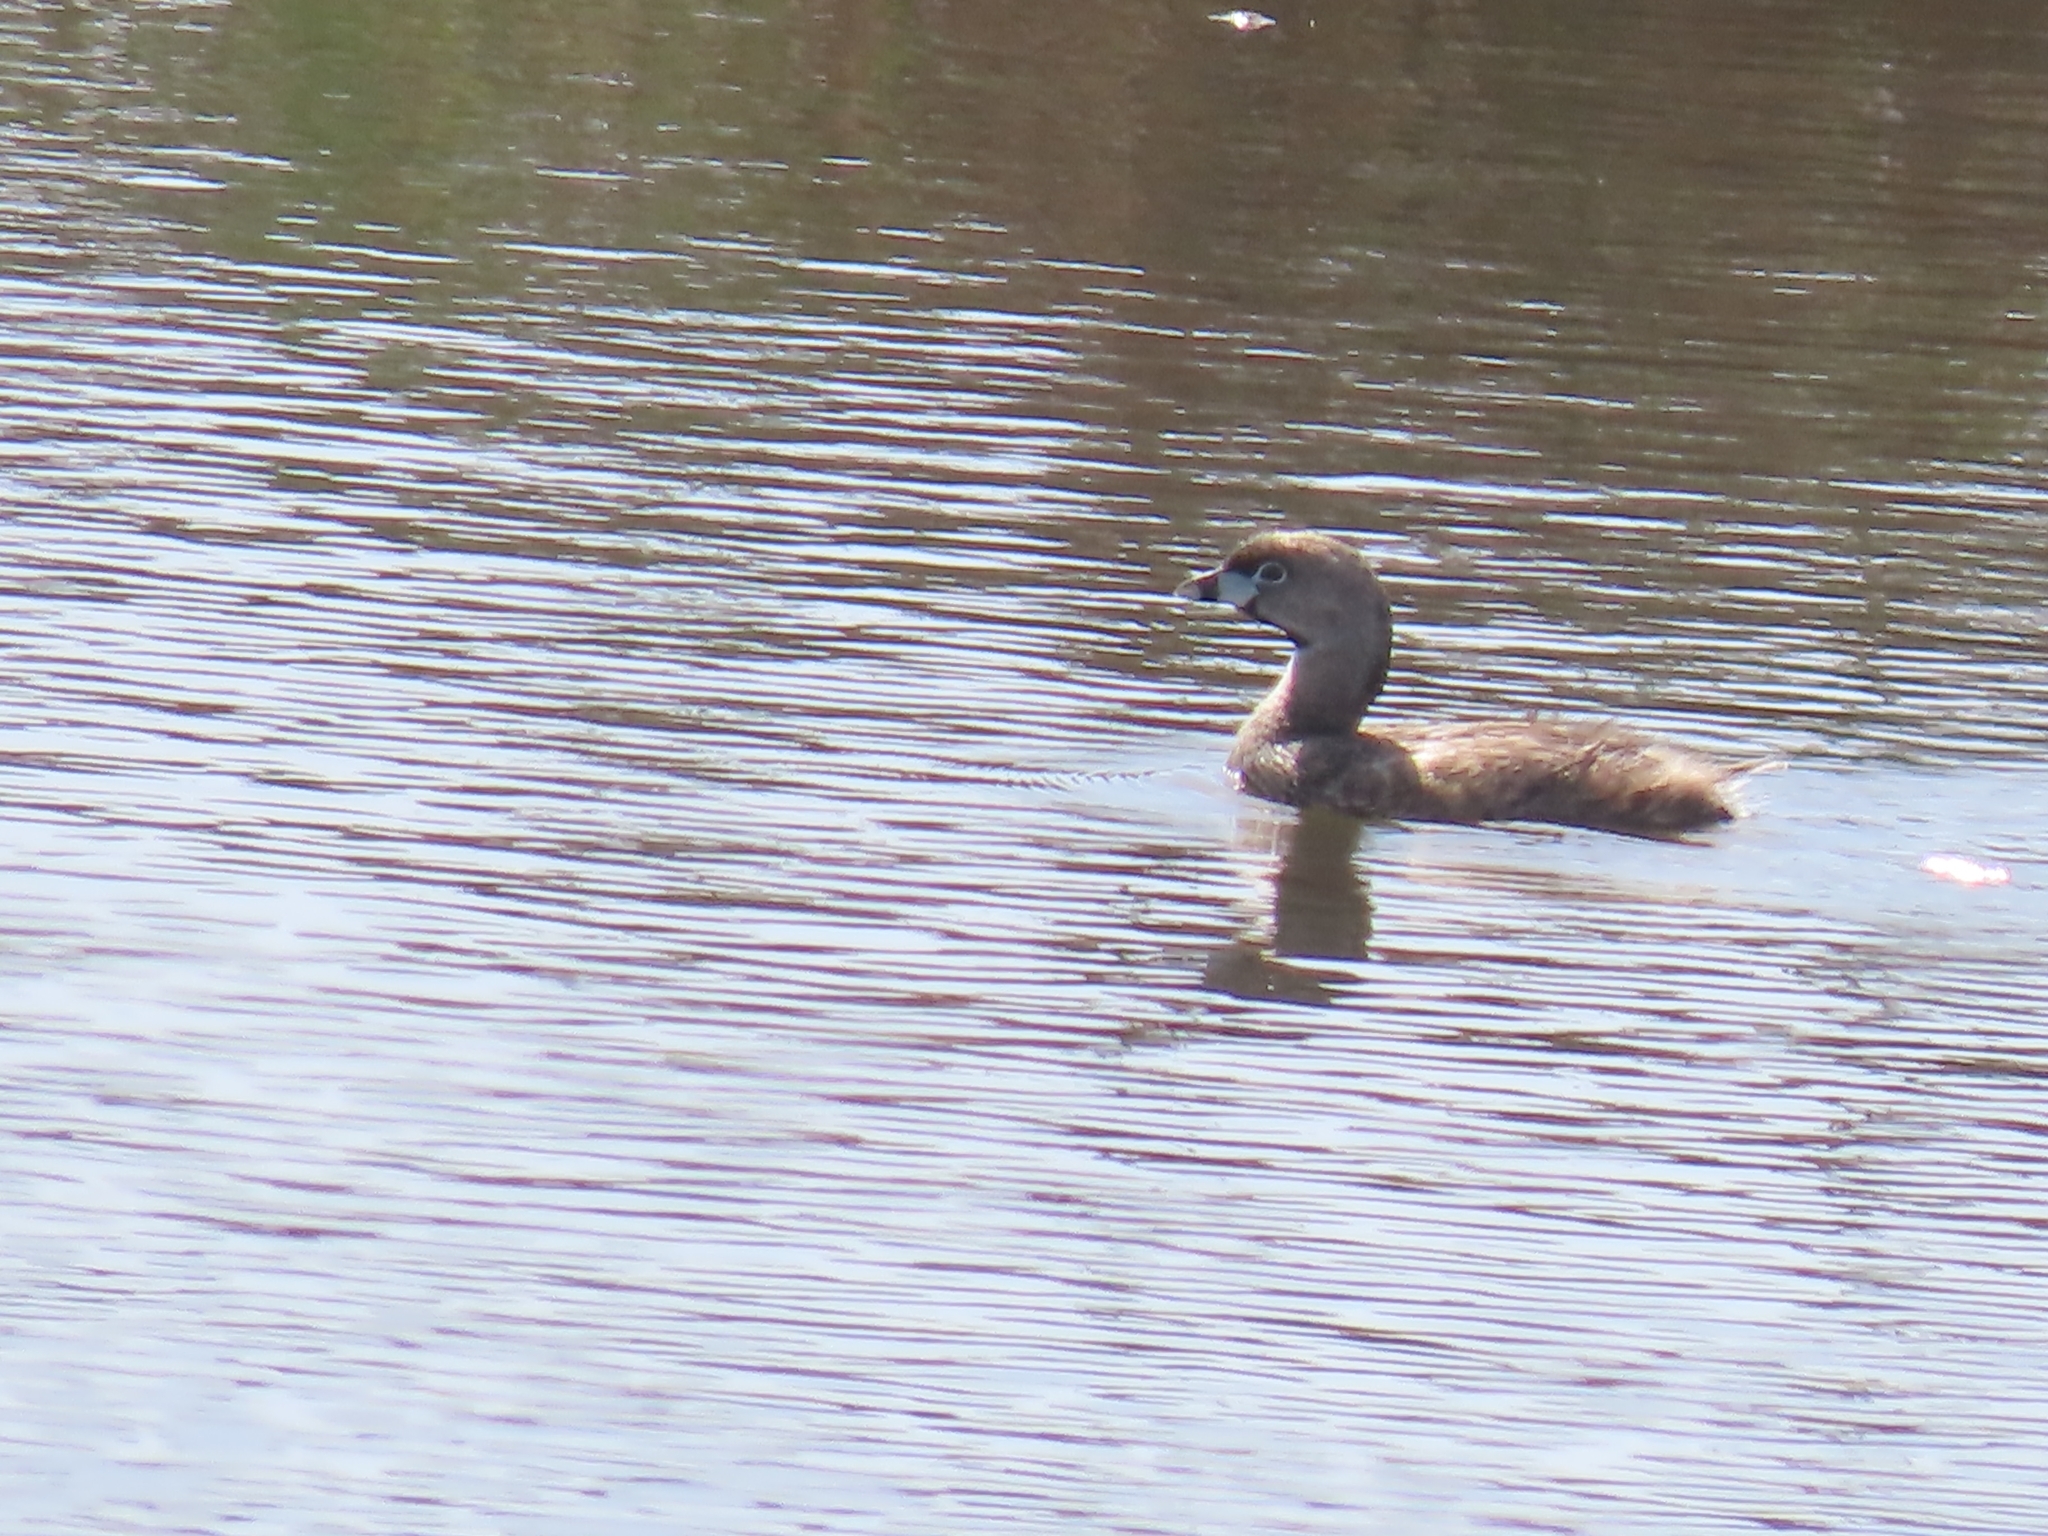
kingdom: Animalia
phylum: Chordata
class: Aves
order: Podicipediformes
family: Podicipedidae
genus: Podilymbus
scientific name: Podilymbus podiceps
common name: Pied-billed grebe
